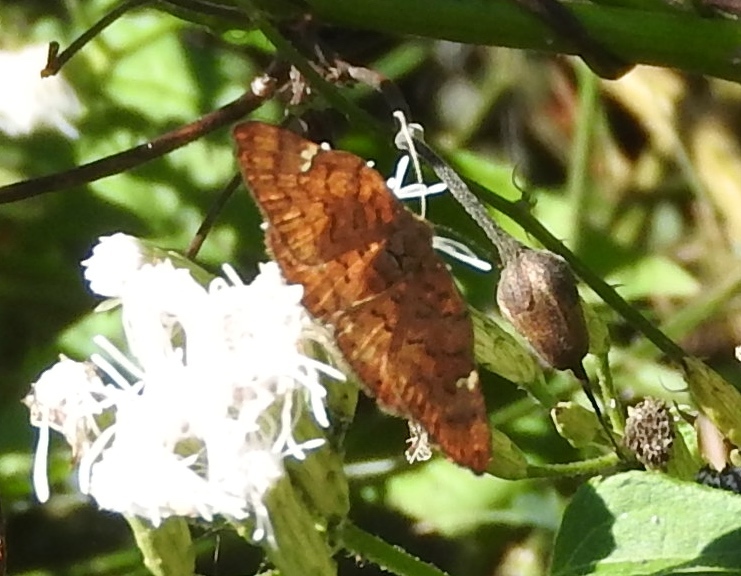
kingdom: Animalia
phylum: Arthropoda
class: Insecta
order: Lepidoptera
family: Riodinidae
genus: Curvie
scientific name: Curvie emesia
